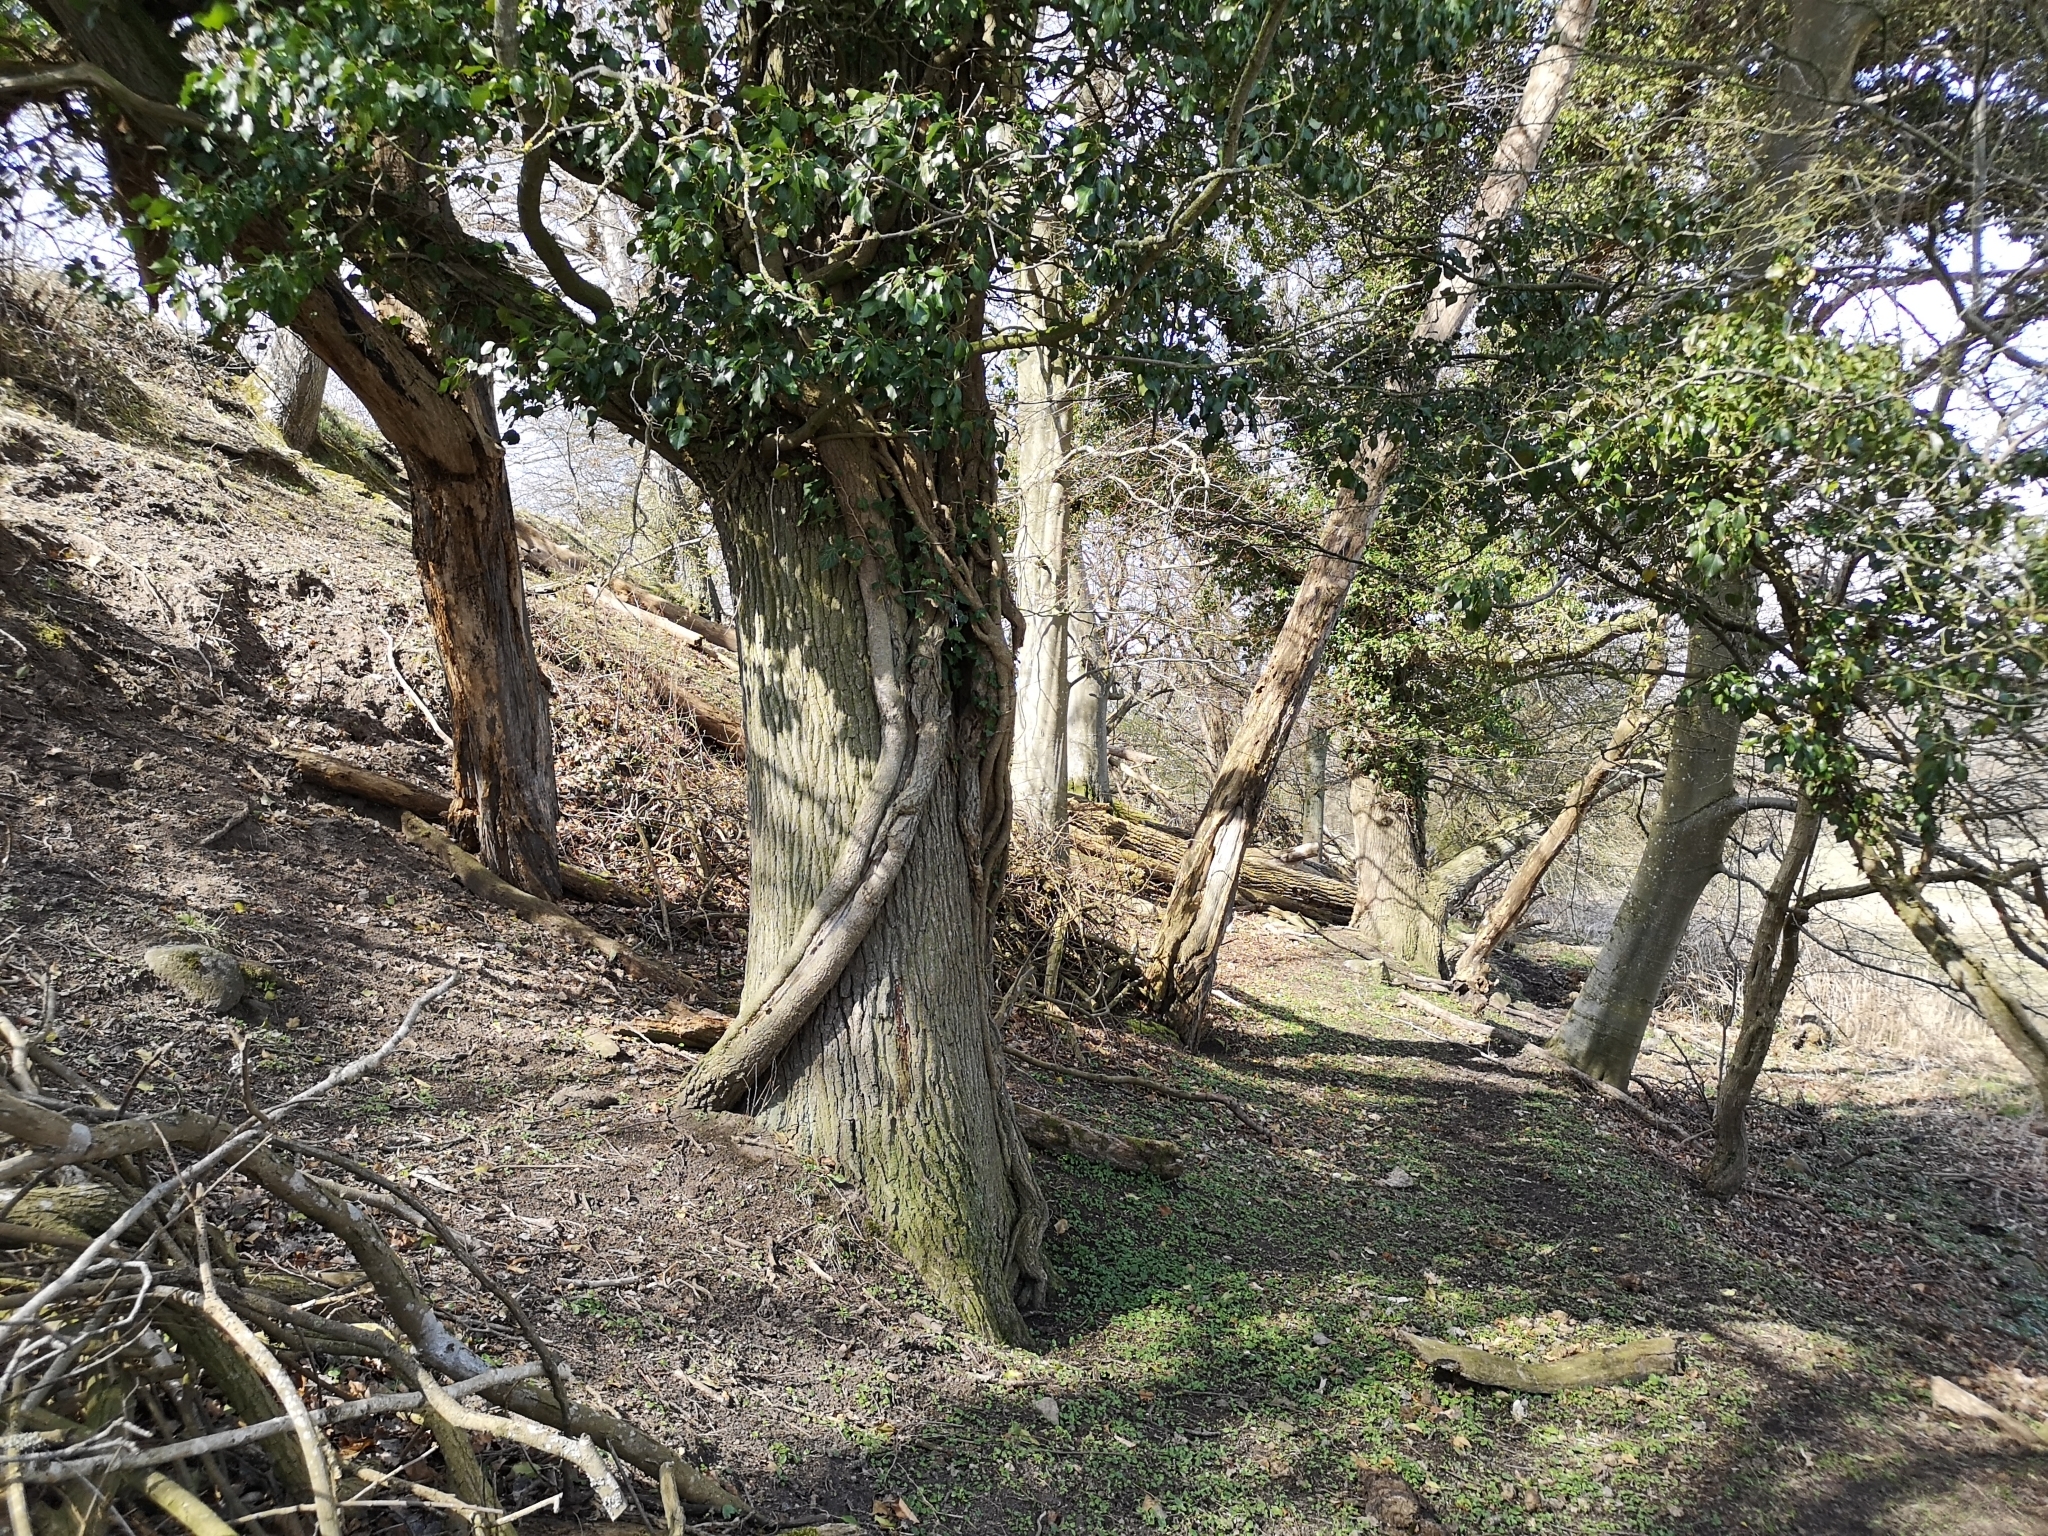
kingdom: Plantae
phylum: Tracheophyta
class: Magnoliopsida
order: Apiales
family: Araliaceae
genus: Hedera
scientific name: Hedera helix
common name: Ivy
